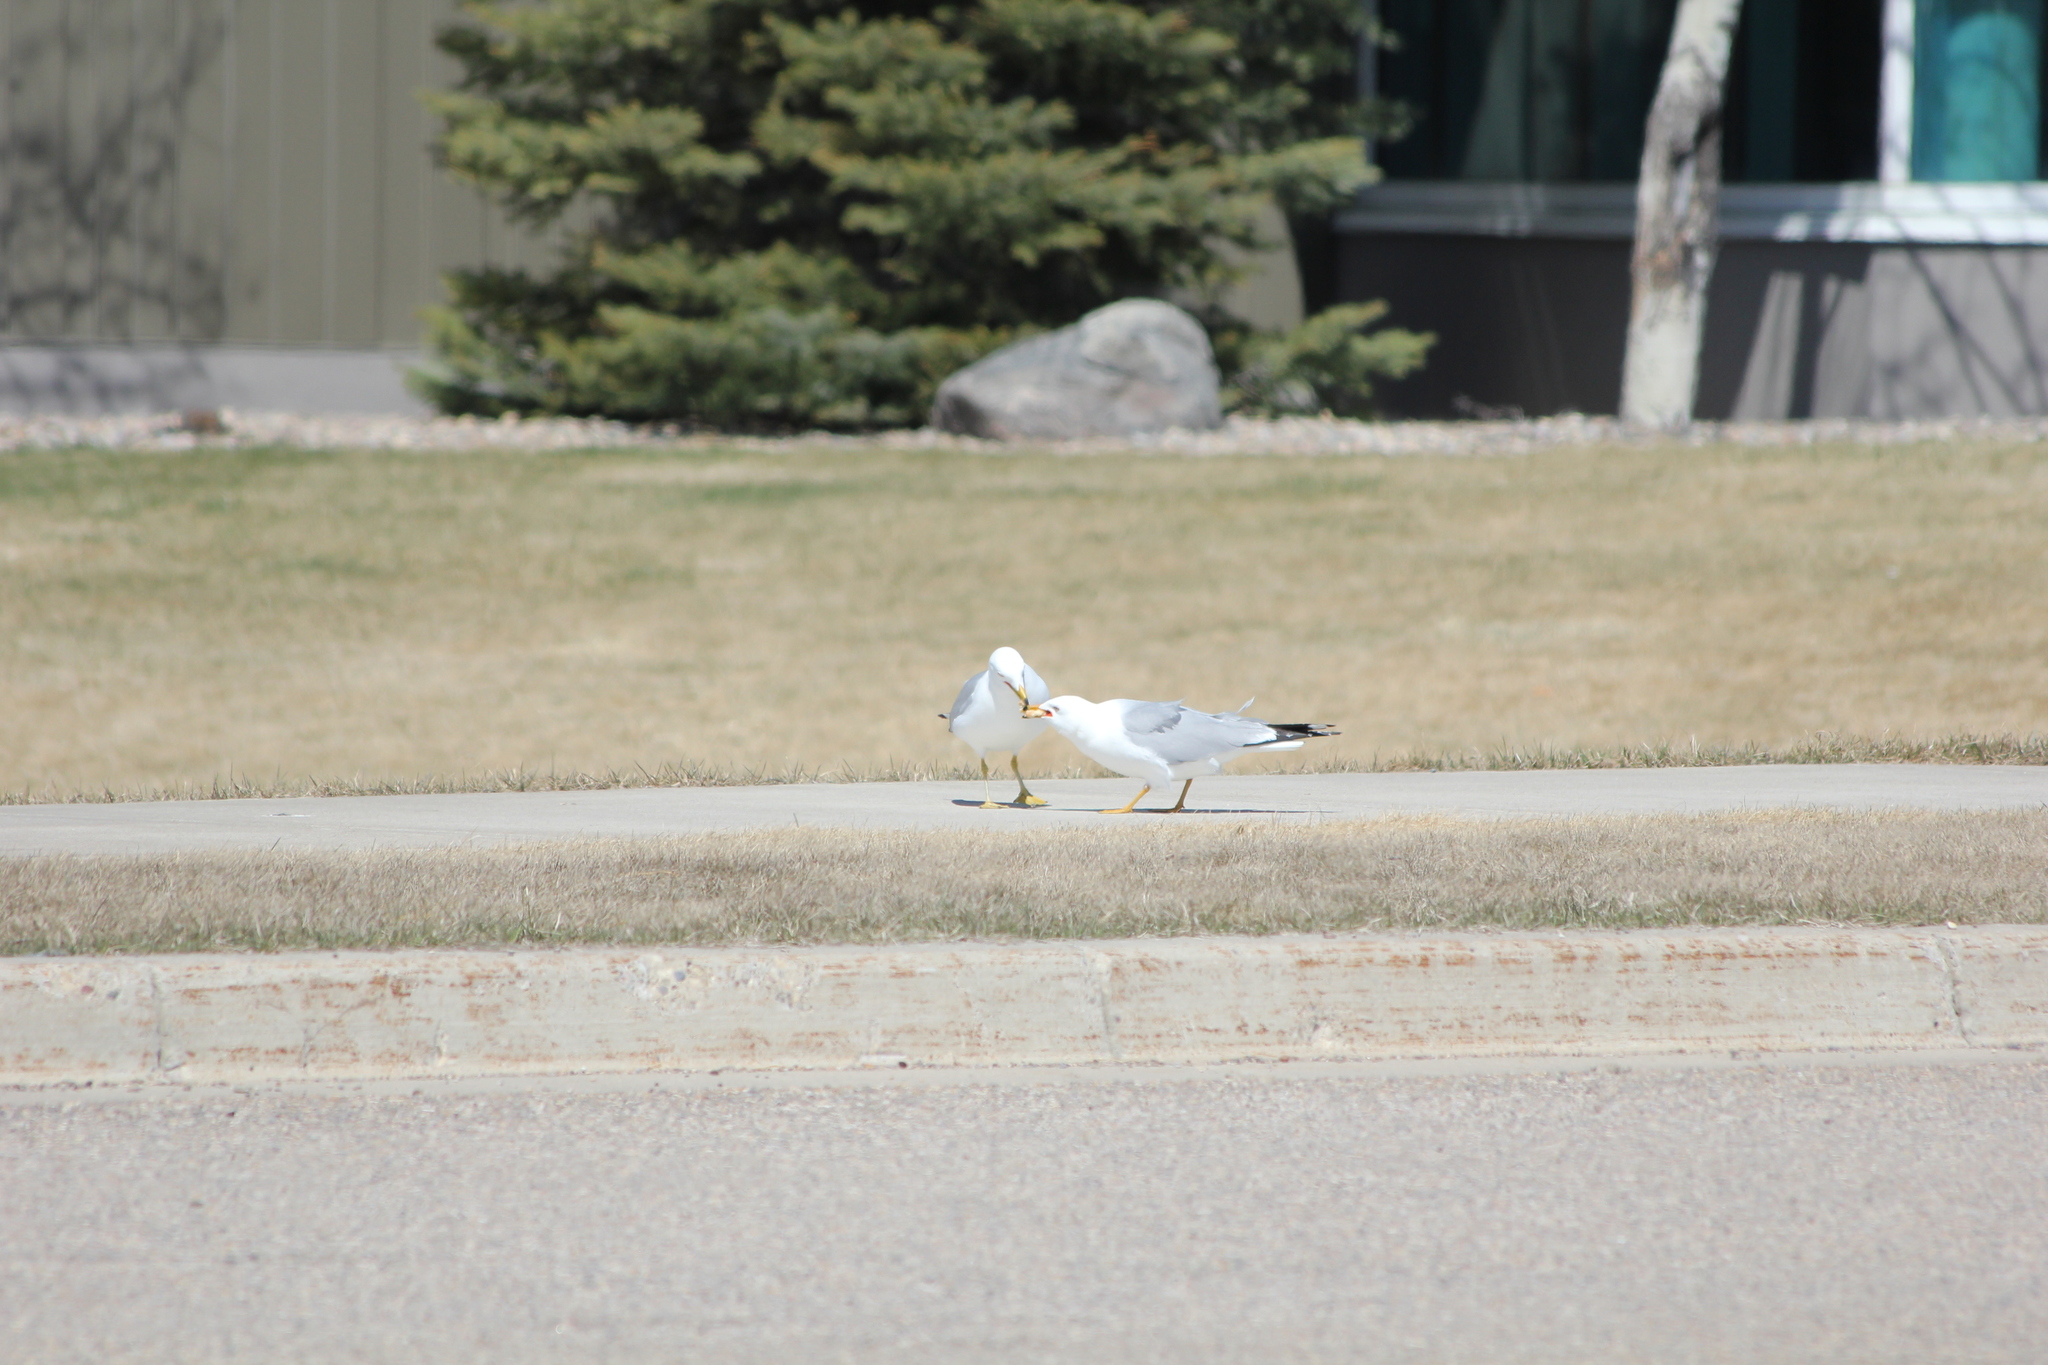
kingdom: Animalia
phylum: Chordata
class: Aves
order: Charadriiformes
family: Laridae
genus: Larus
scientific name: Larus delawarensis
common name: Ring-billed gull
